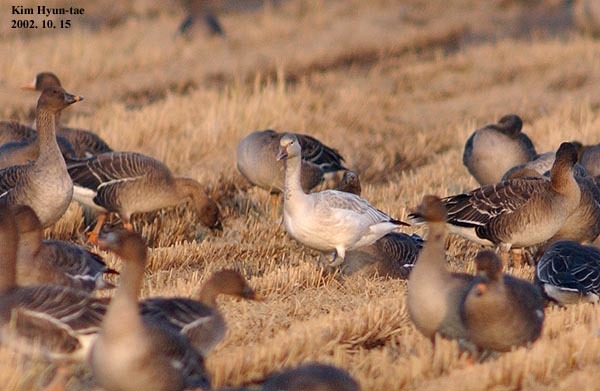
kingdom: Animalia
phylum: Chordata
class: Aves
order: Anseriformes
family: Anatidae
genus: Anser
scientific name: Anser caerulescens
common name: Snow goose
